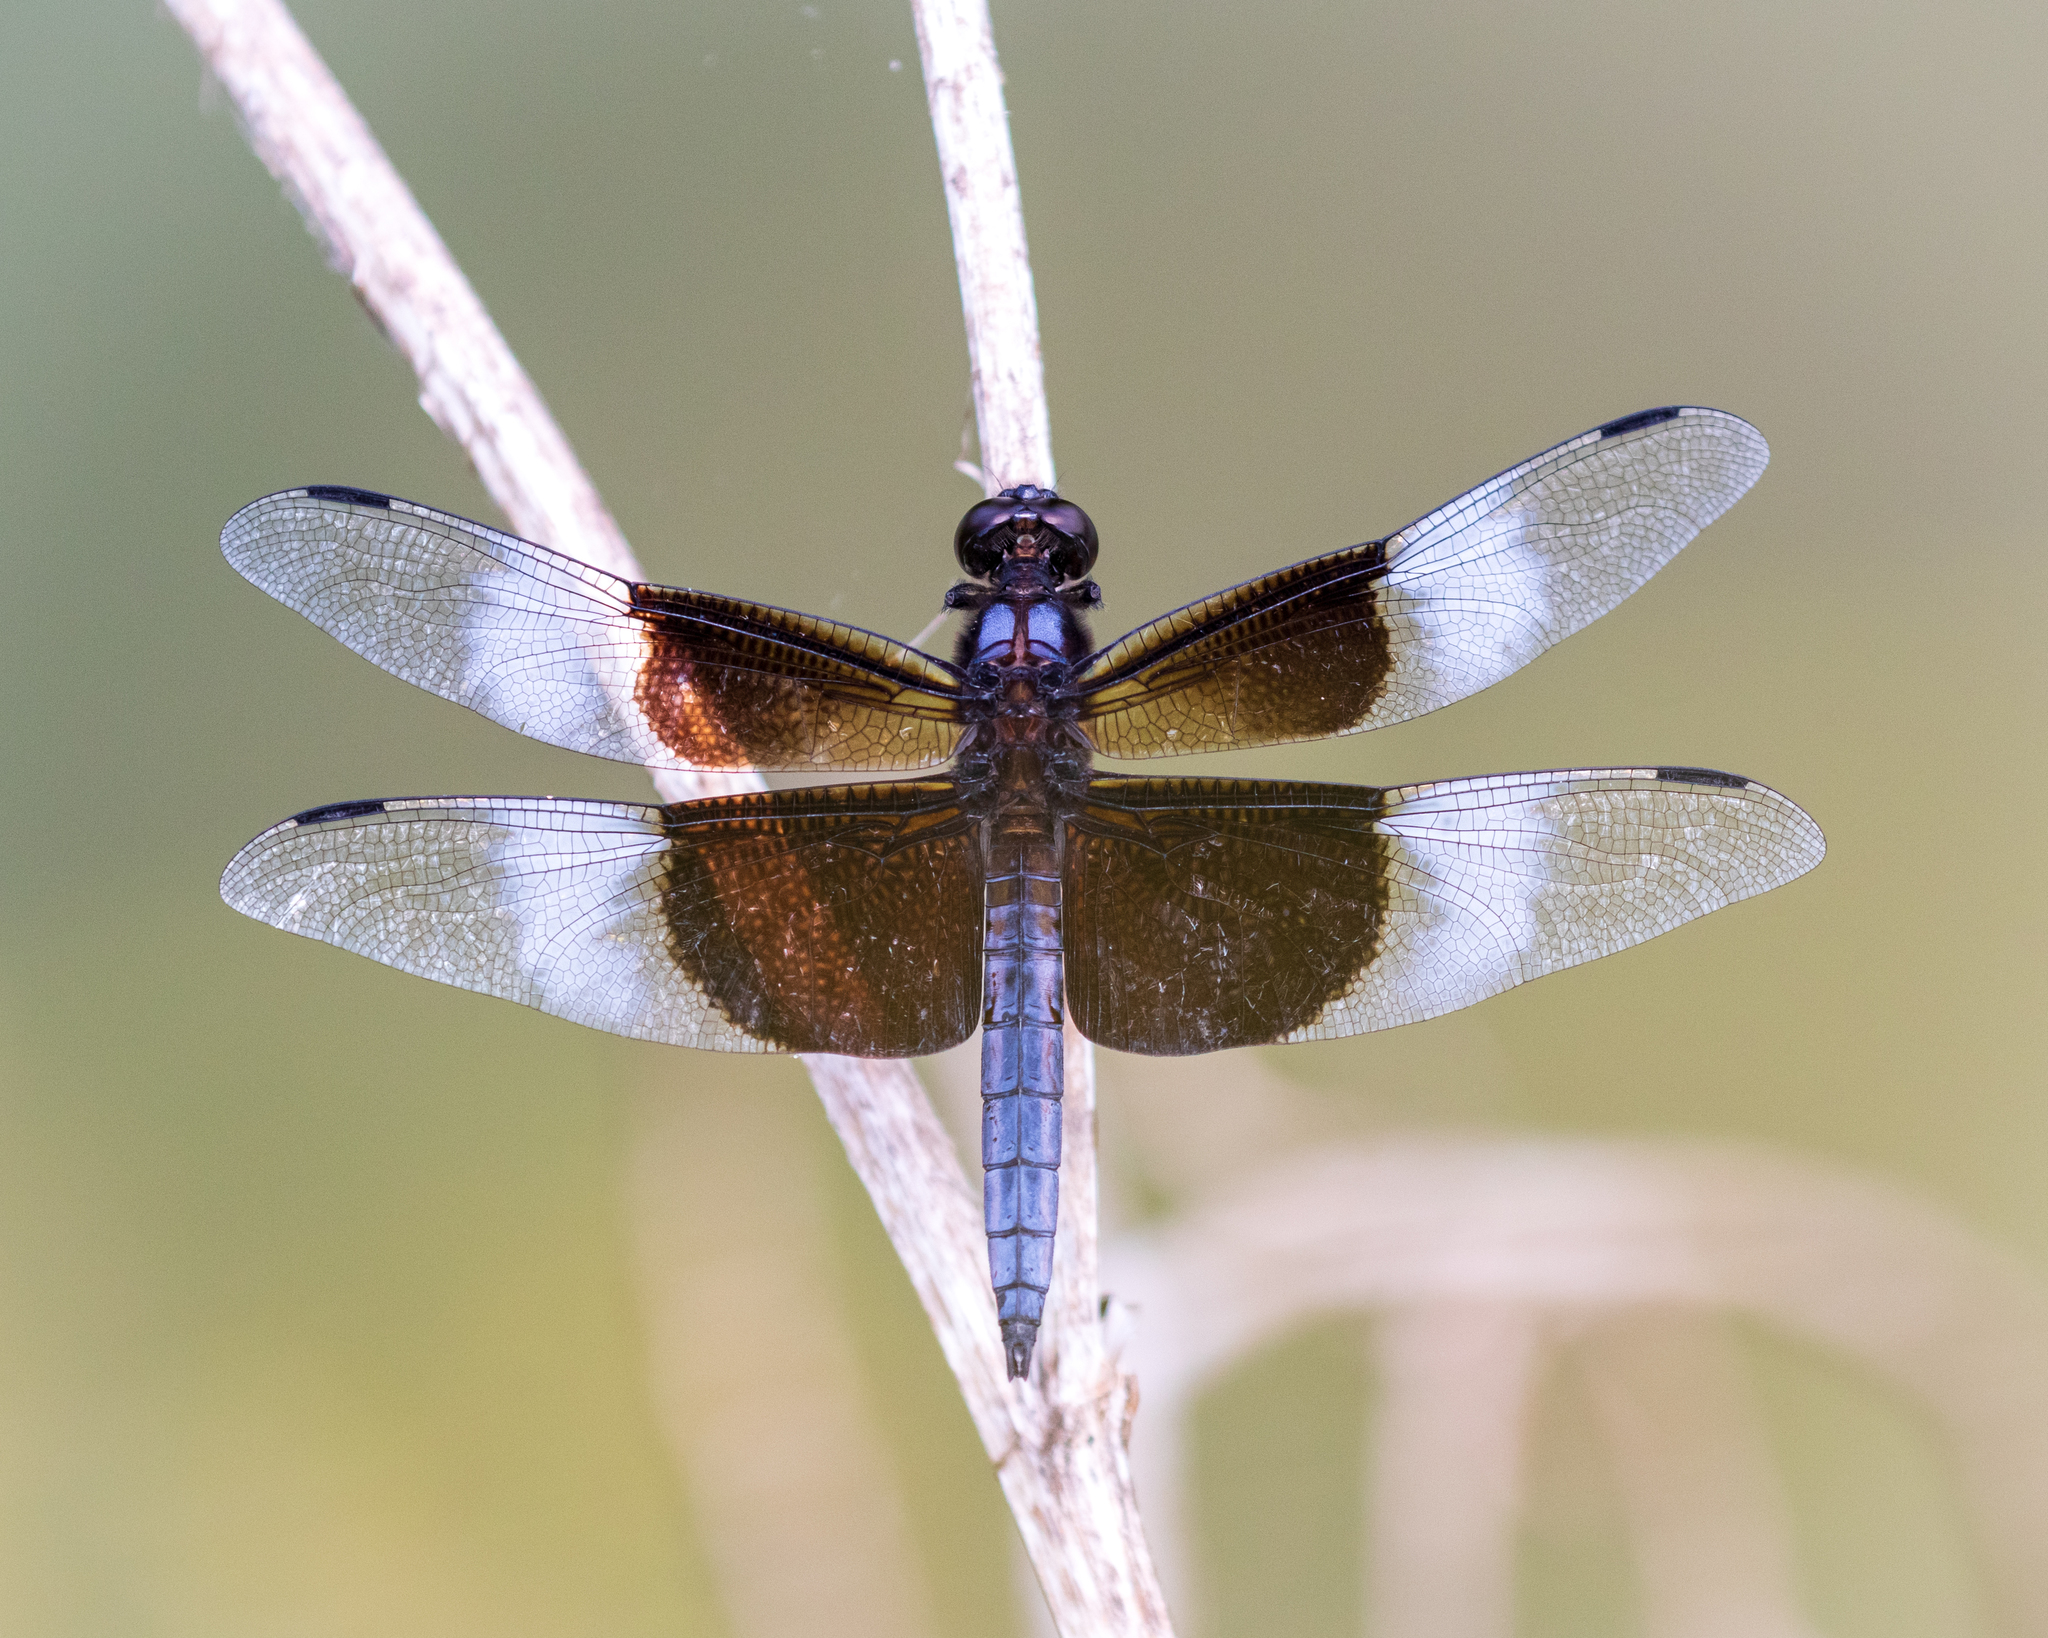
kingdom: Animalia
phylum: Arthropoda
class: Insecta
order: Odonata
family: Libellulidae
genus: Libellula
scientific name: Libellula luctuosa
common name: Widow skimmer
